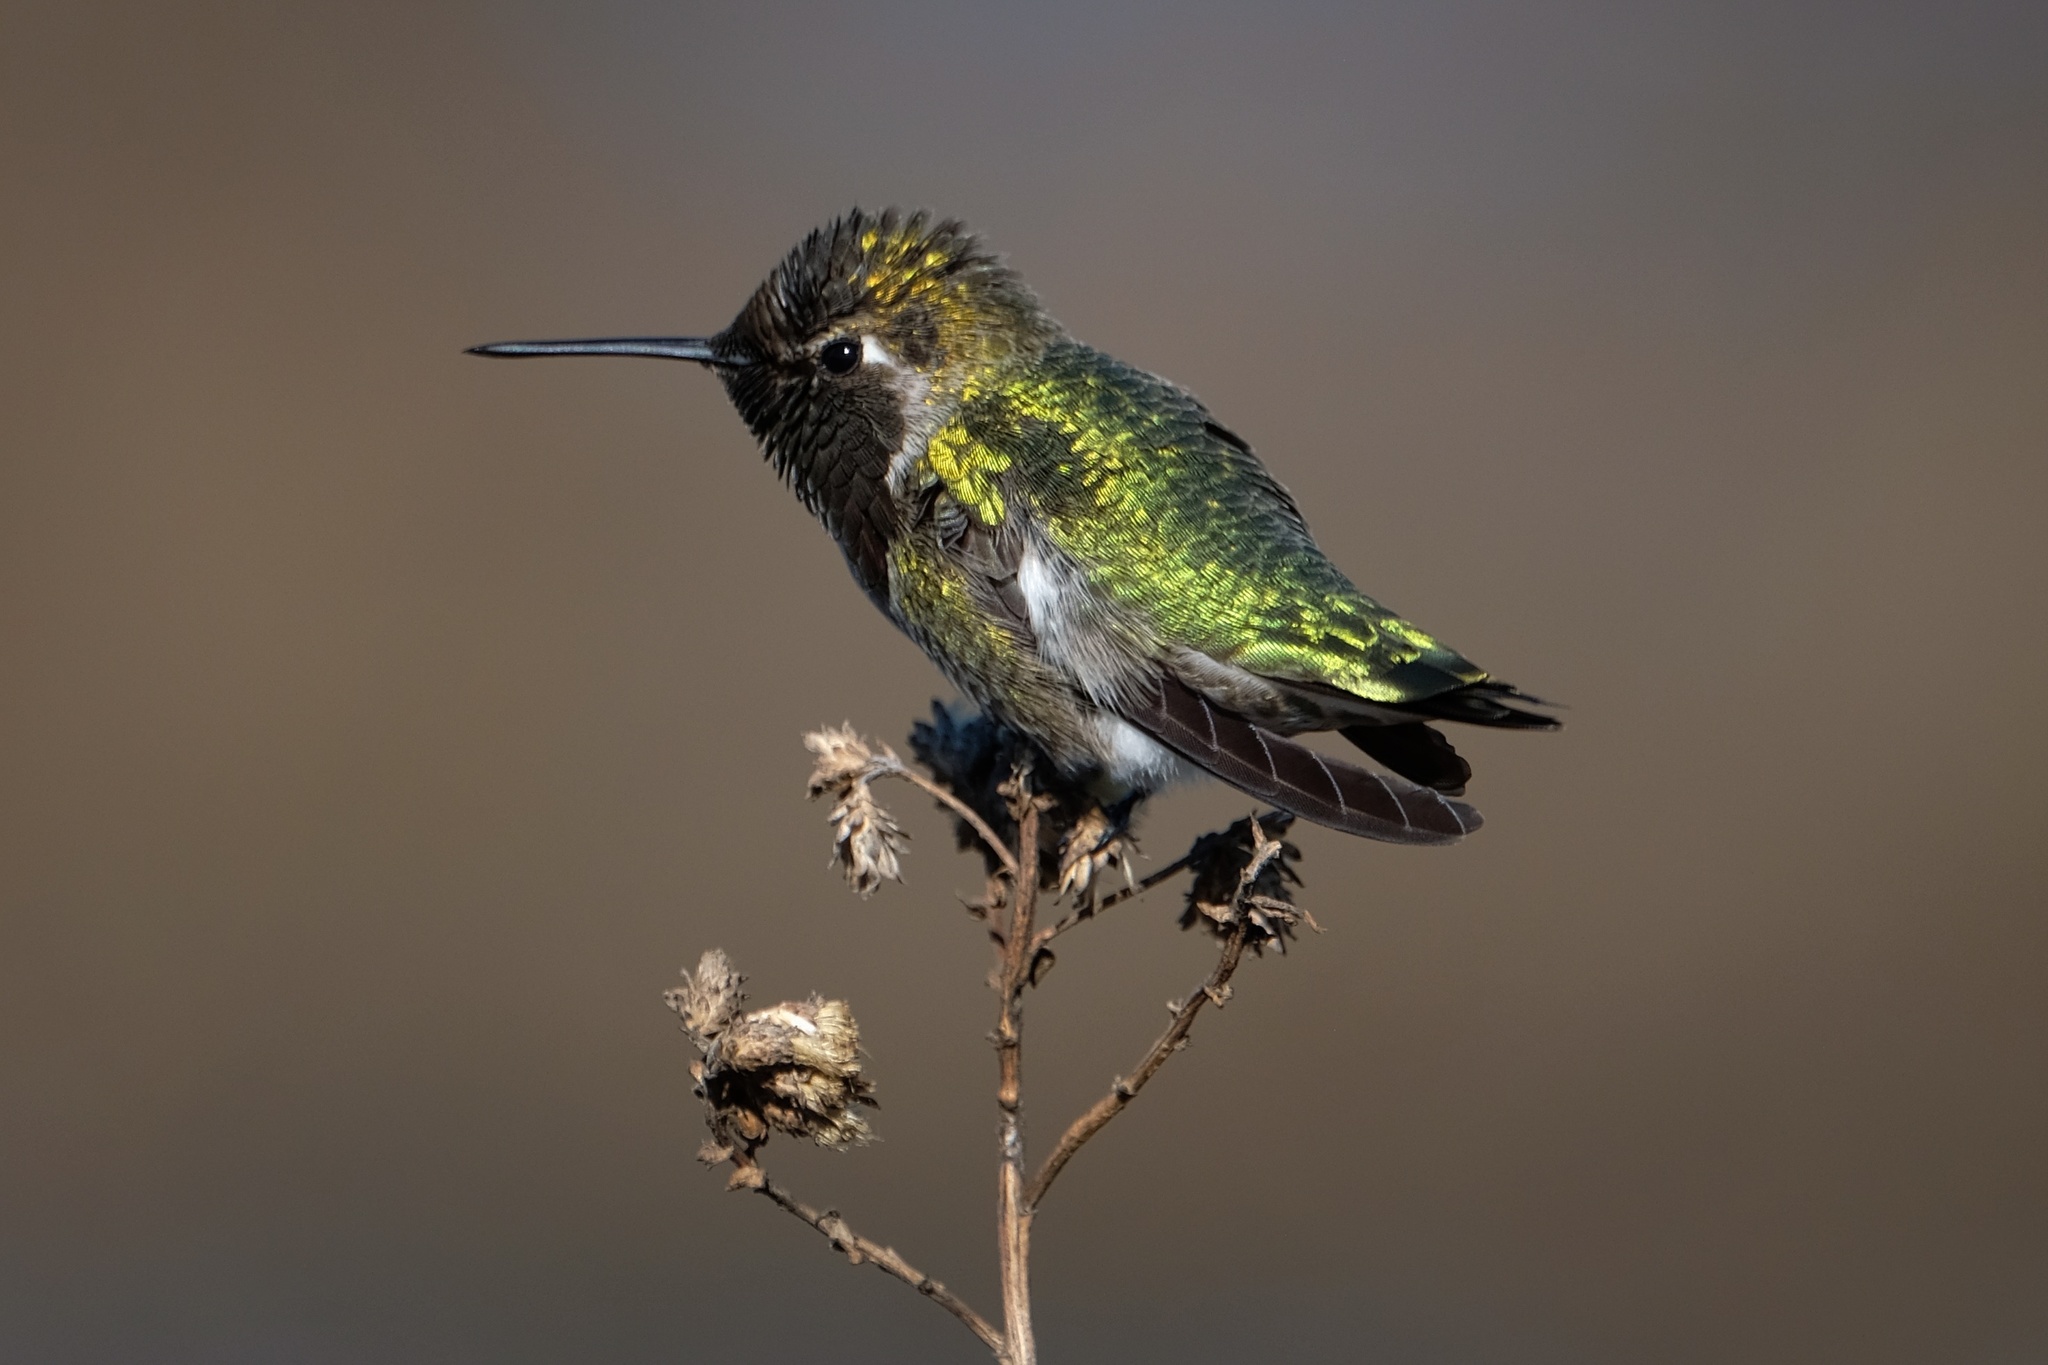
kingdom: Animalia
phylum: Chordata
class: Aves
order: Apodiformes
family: Trochilidae
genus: Calypte
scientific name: Calypte anna
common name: Anna's hummingbird
